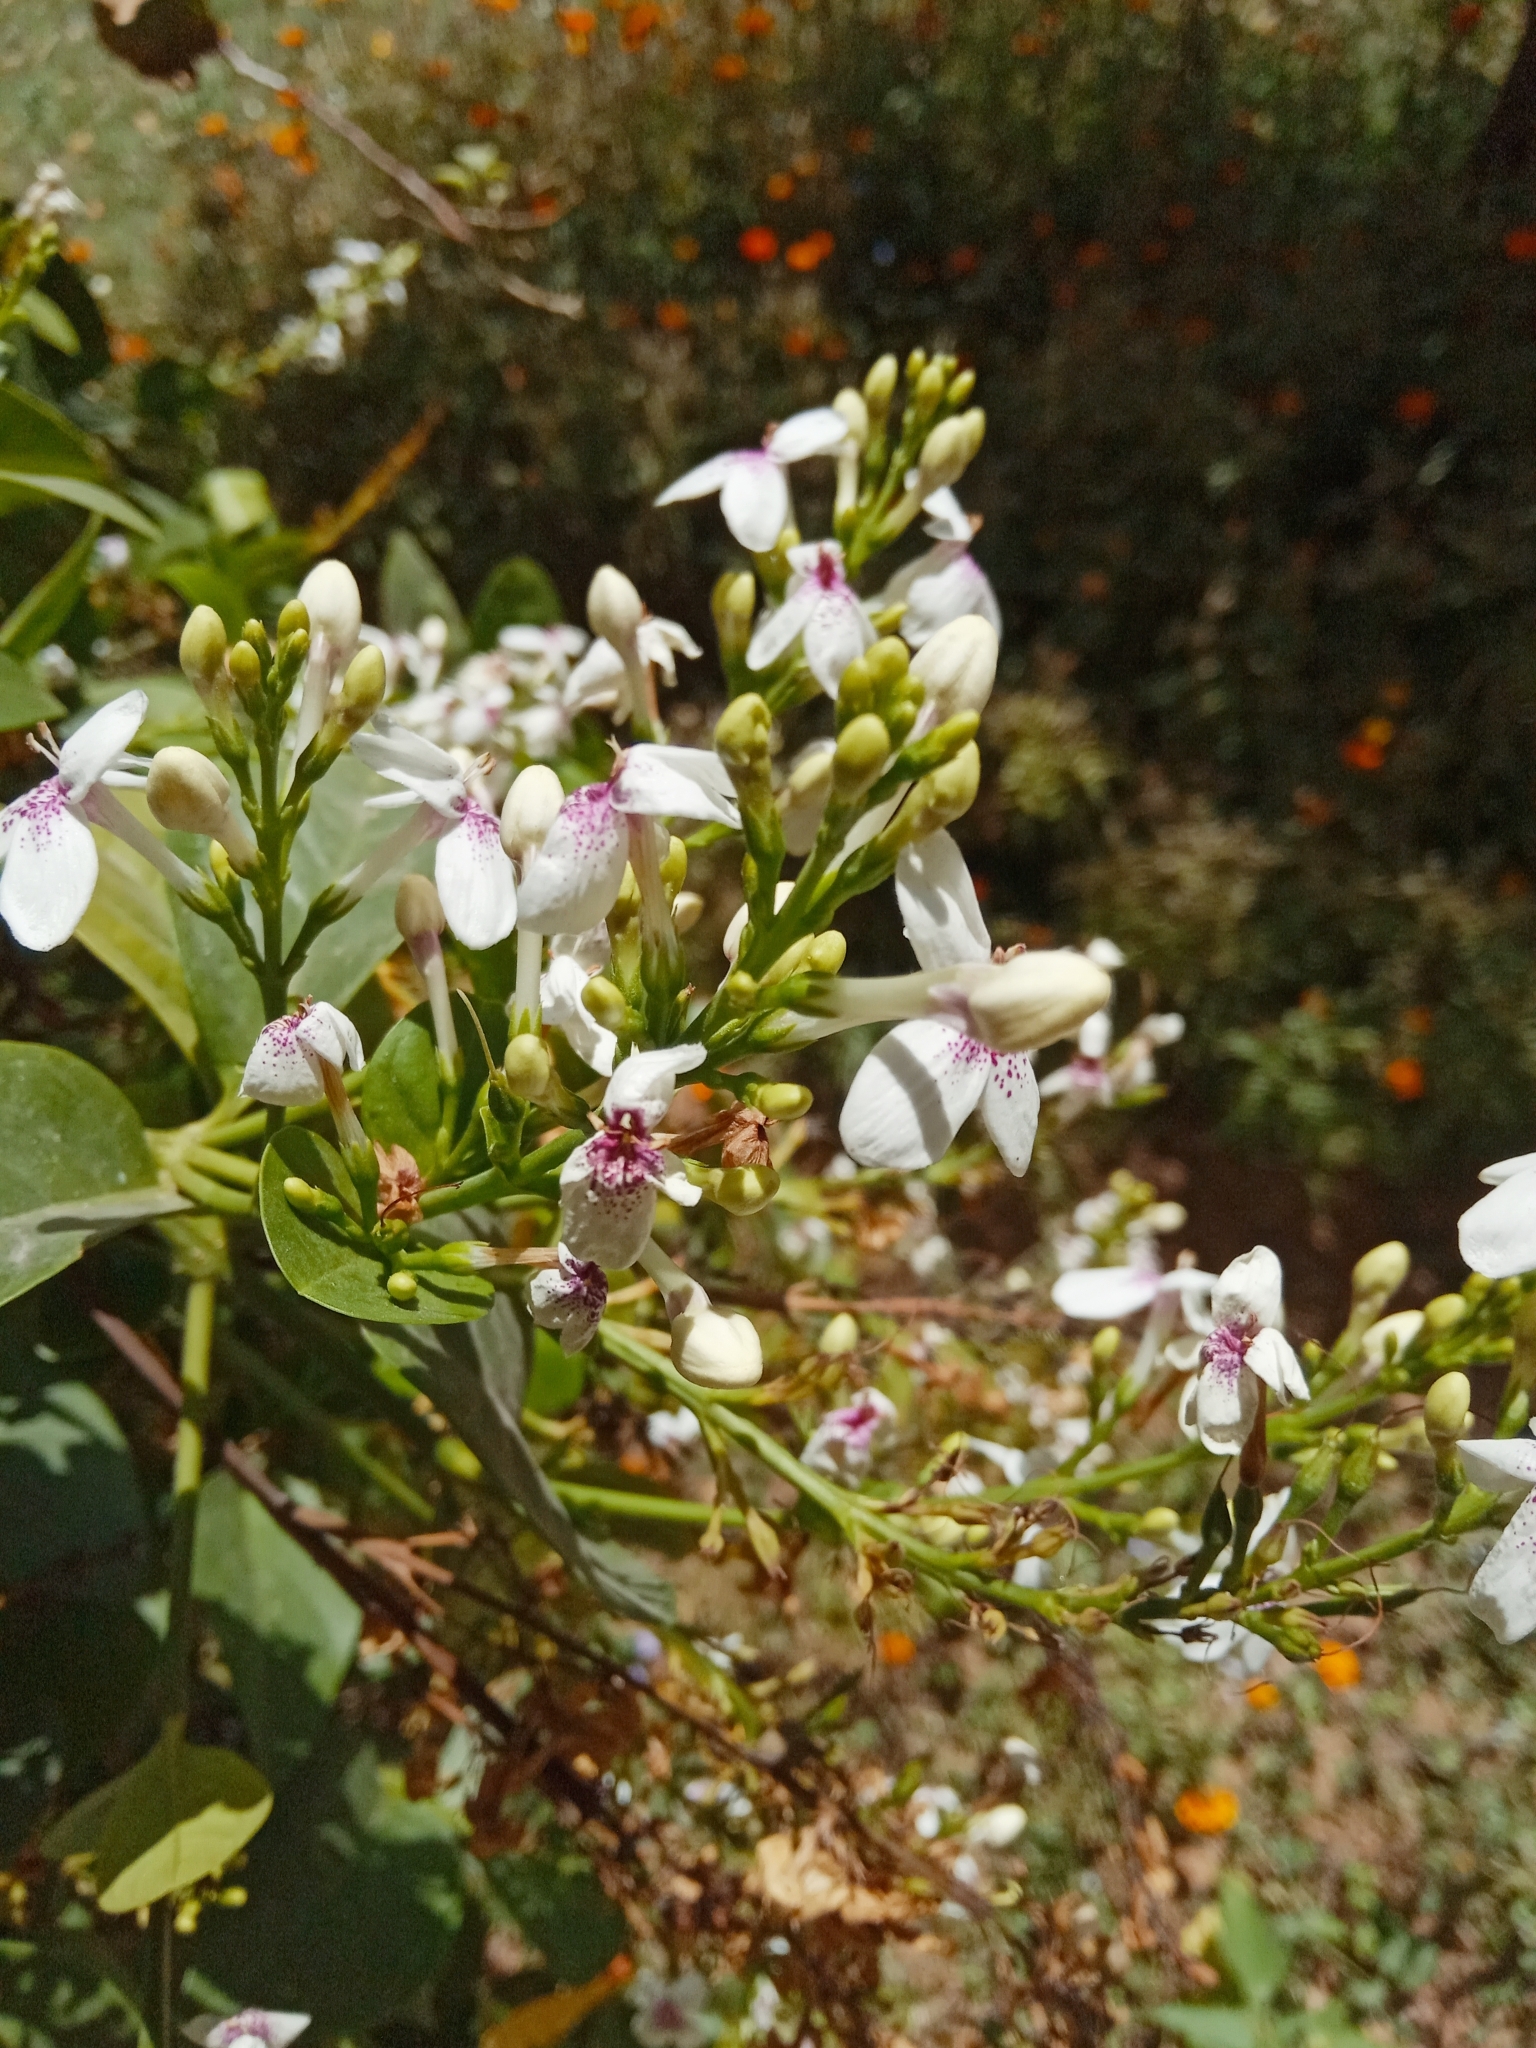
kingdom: Plantae
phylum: Tracheophyta
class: Magnoliopsida
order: Lamiales
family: Acanthaceae
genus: Pseuderanthemum
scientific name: Pseuderanthemum maculatum
